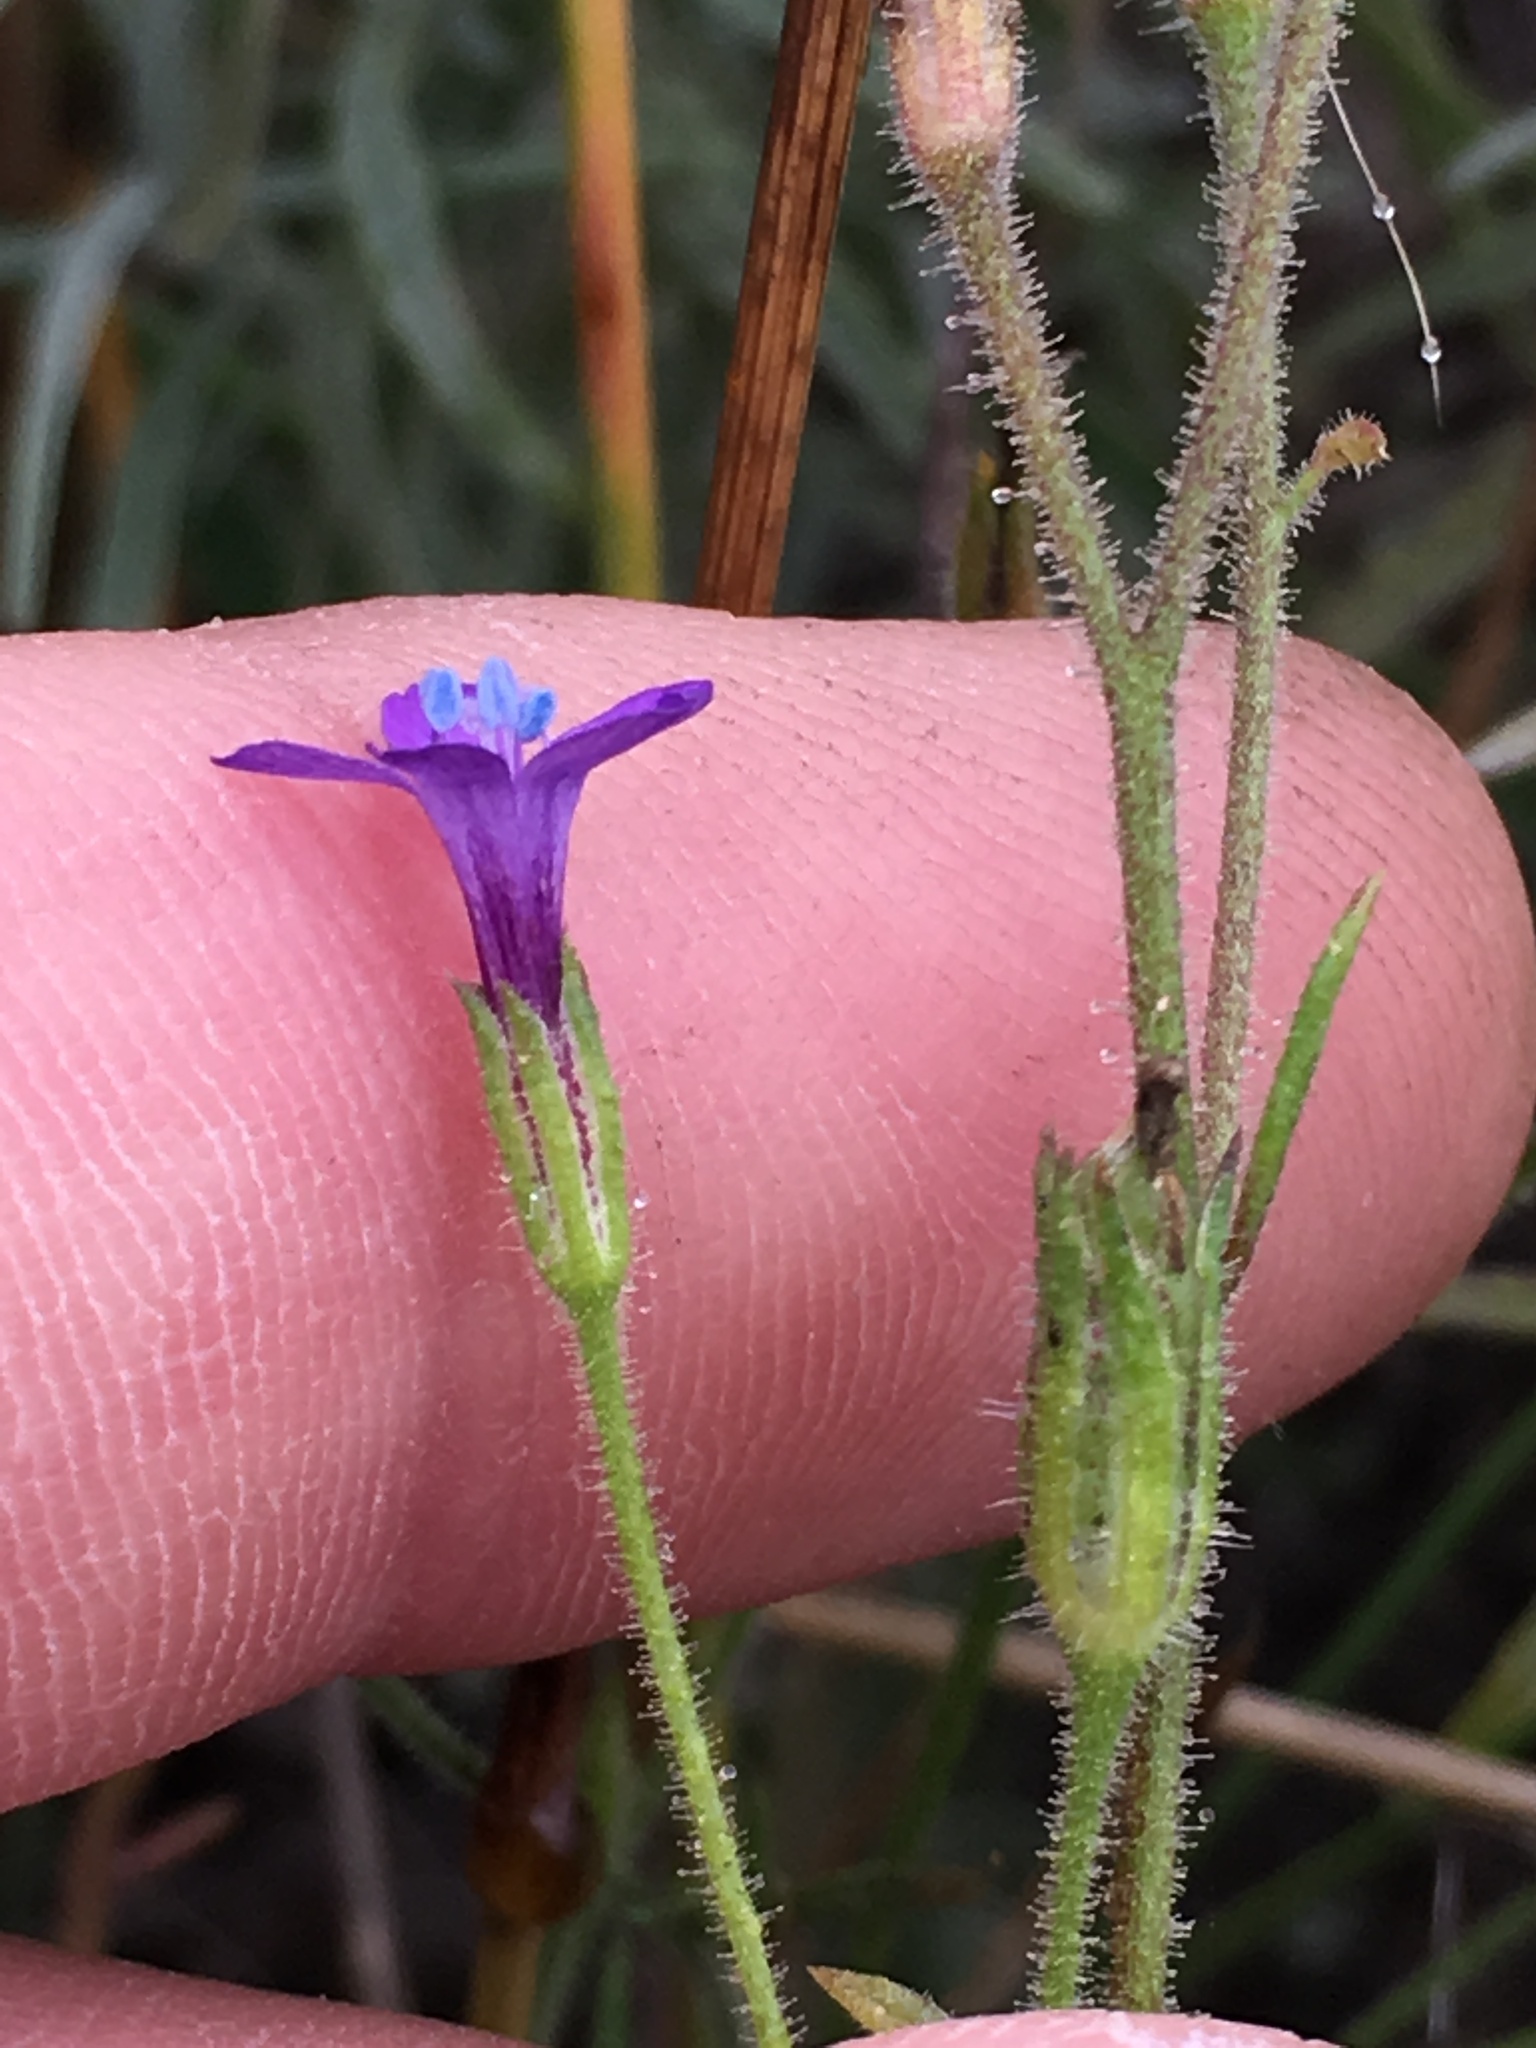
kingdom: Plantae
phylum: Tracheophyta
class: Magnoliopsida
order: Ericales
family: Polemoniaceae
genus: Gilia
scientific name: Gilia nevinii
